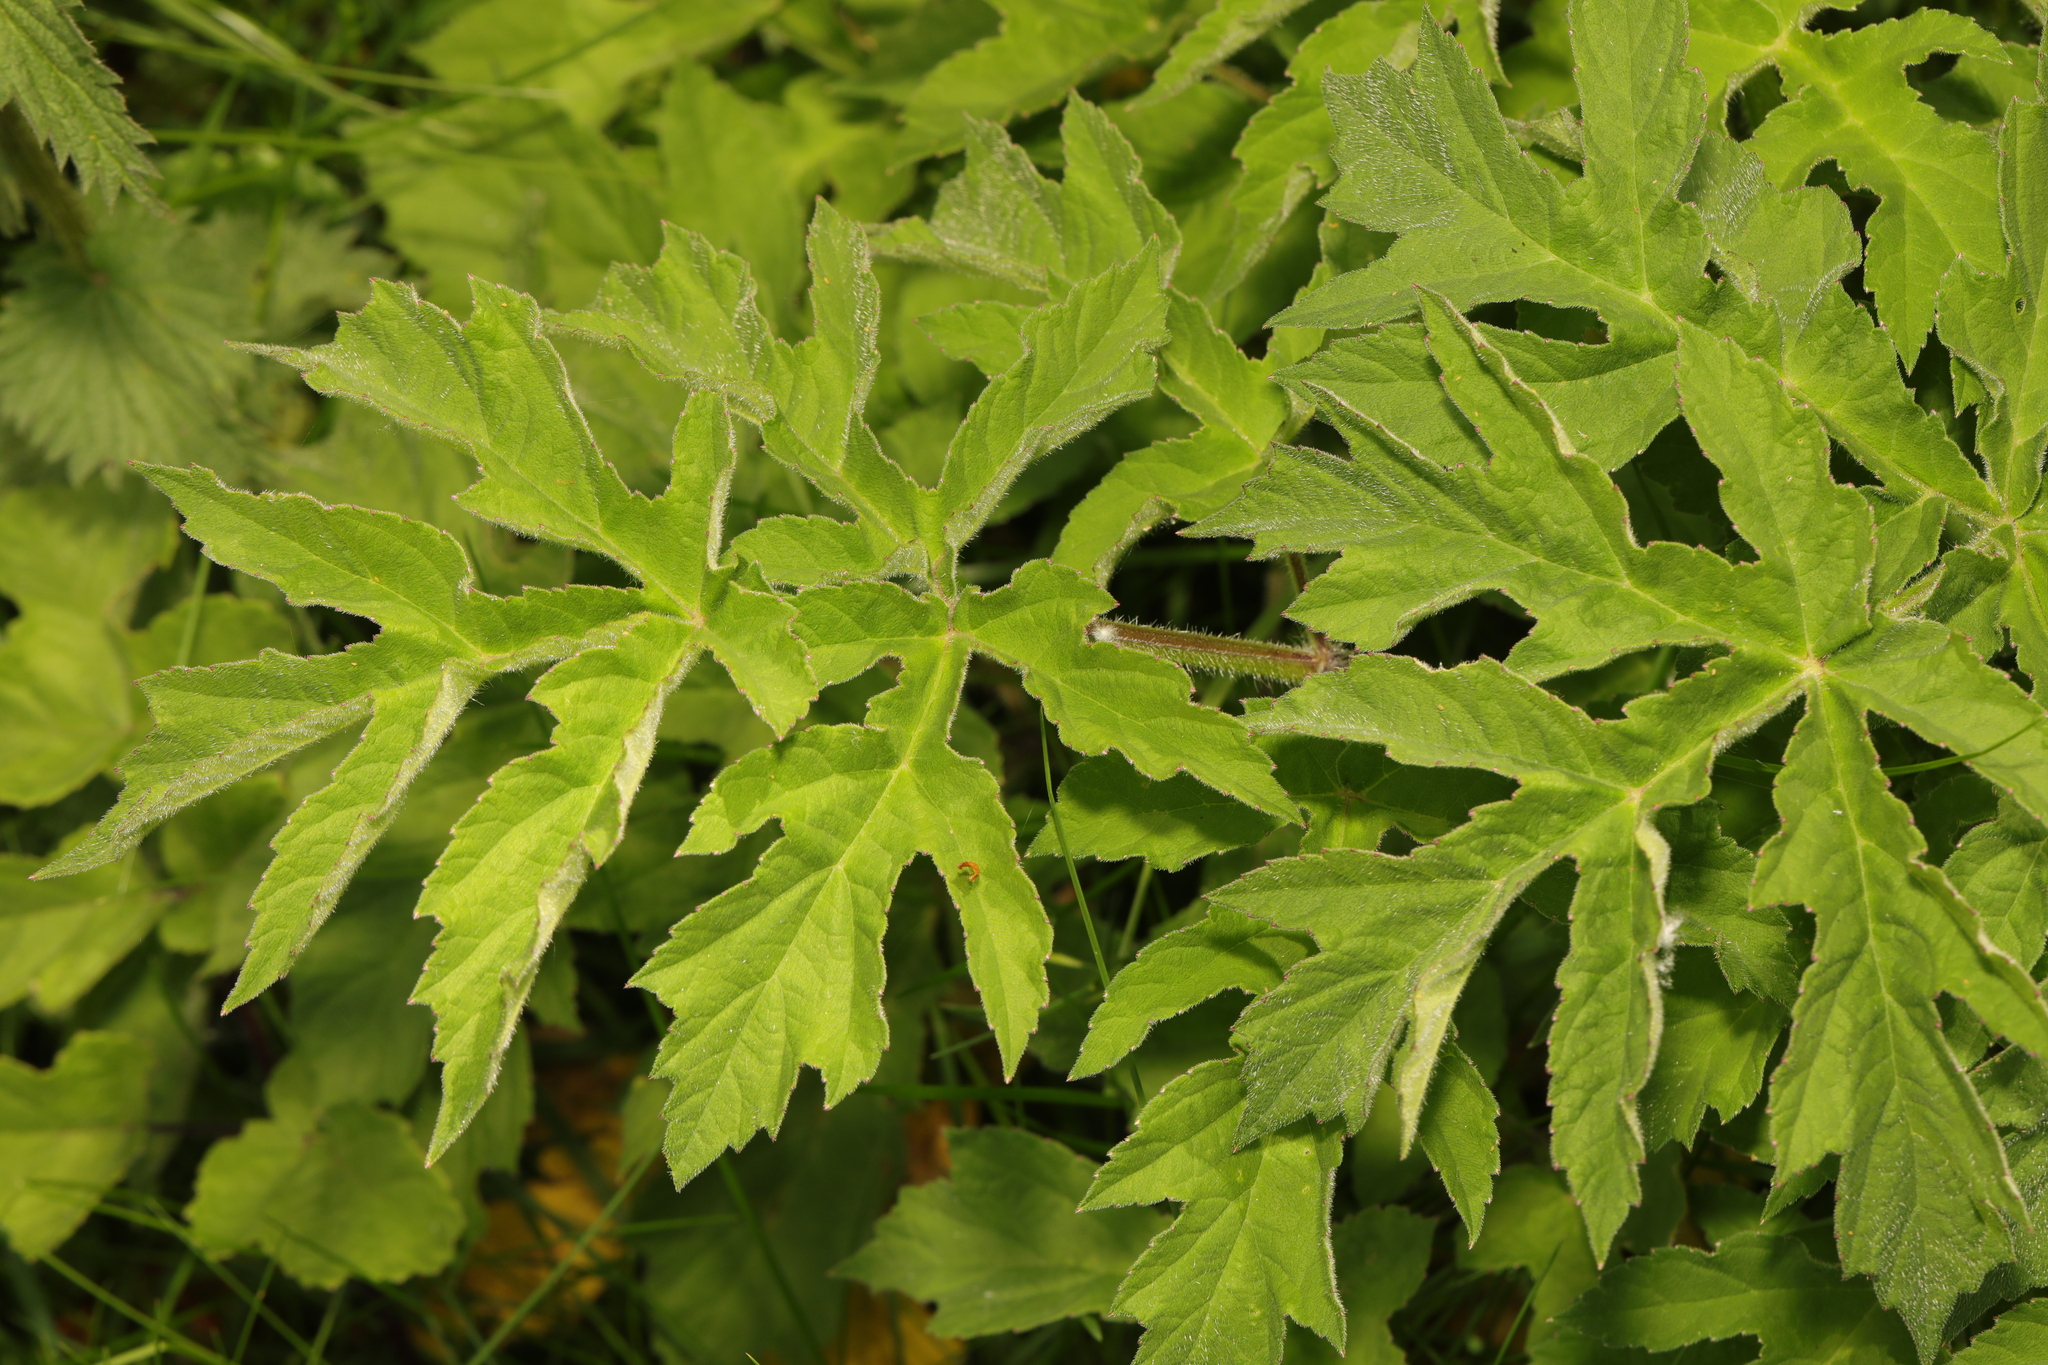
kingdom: Plantae
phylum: Tracheophyta
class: Magnoliopsida
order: Apiales
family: Apiaceae
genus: Heracleum
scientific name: Heracleum sphondylium
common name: Hogweed
